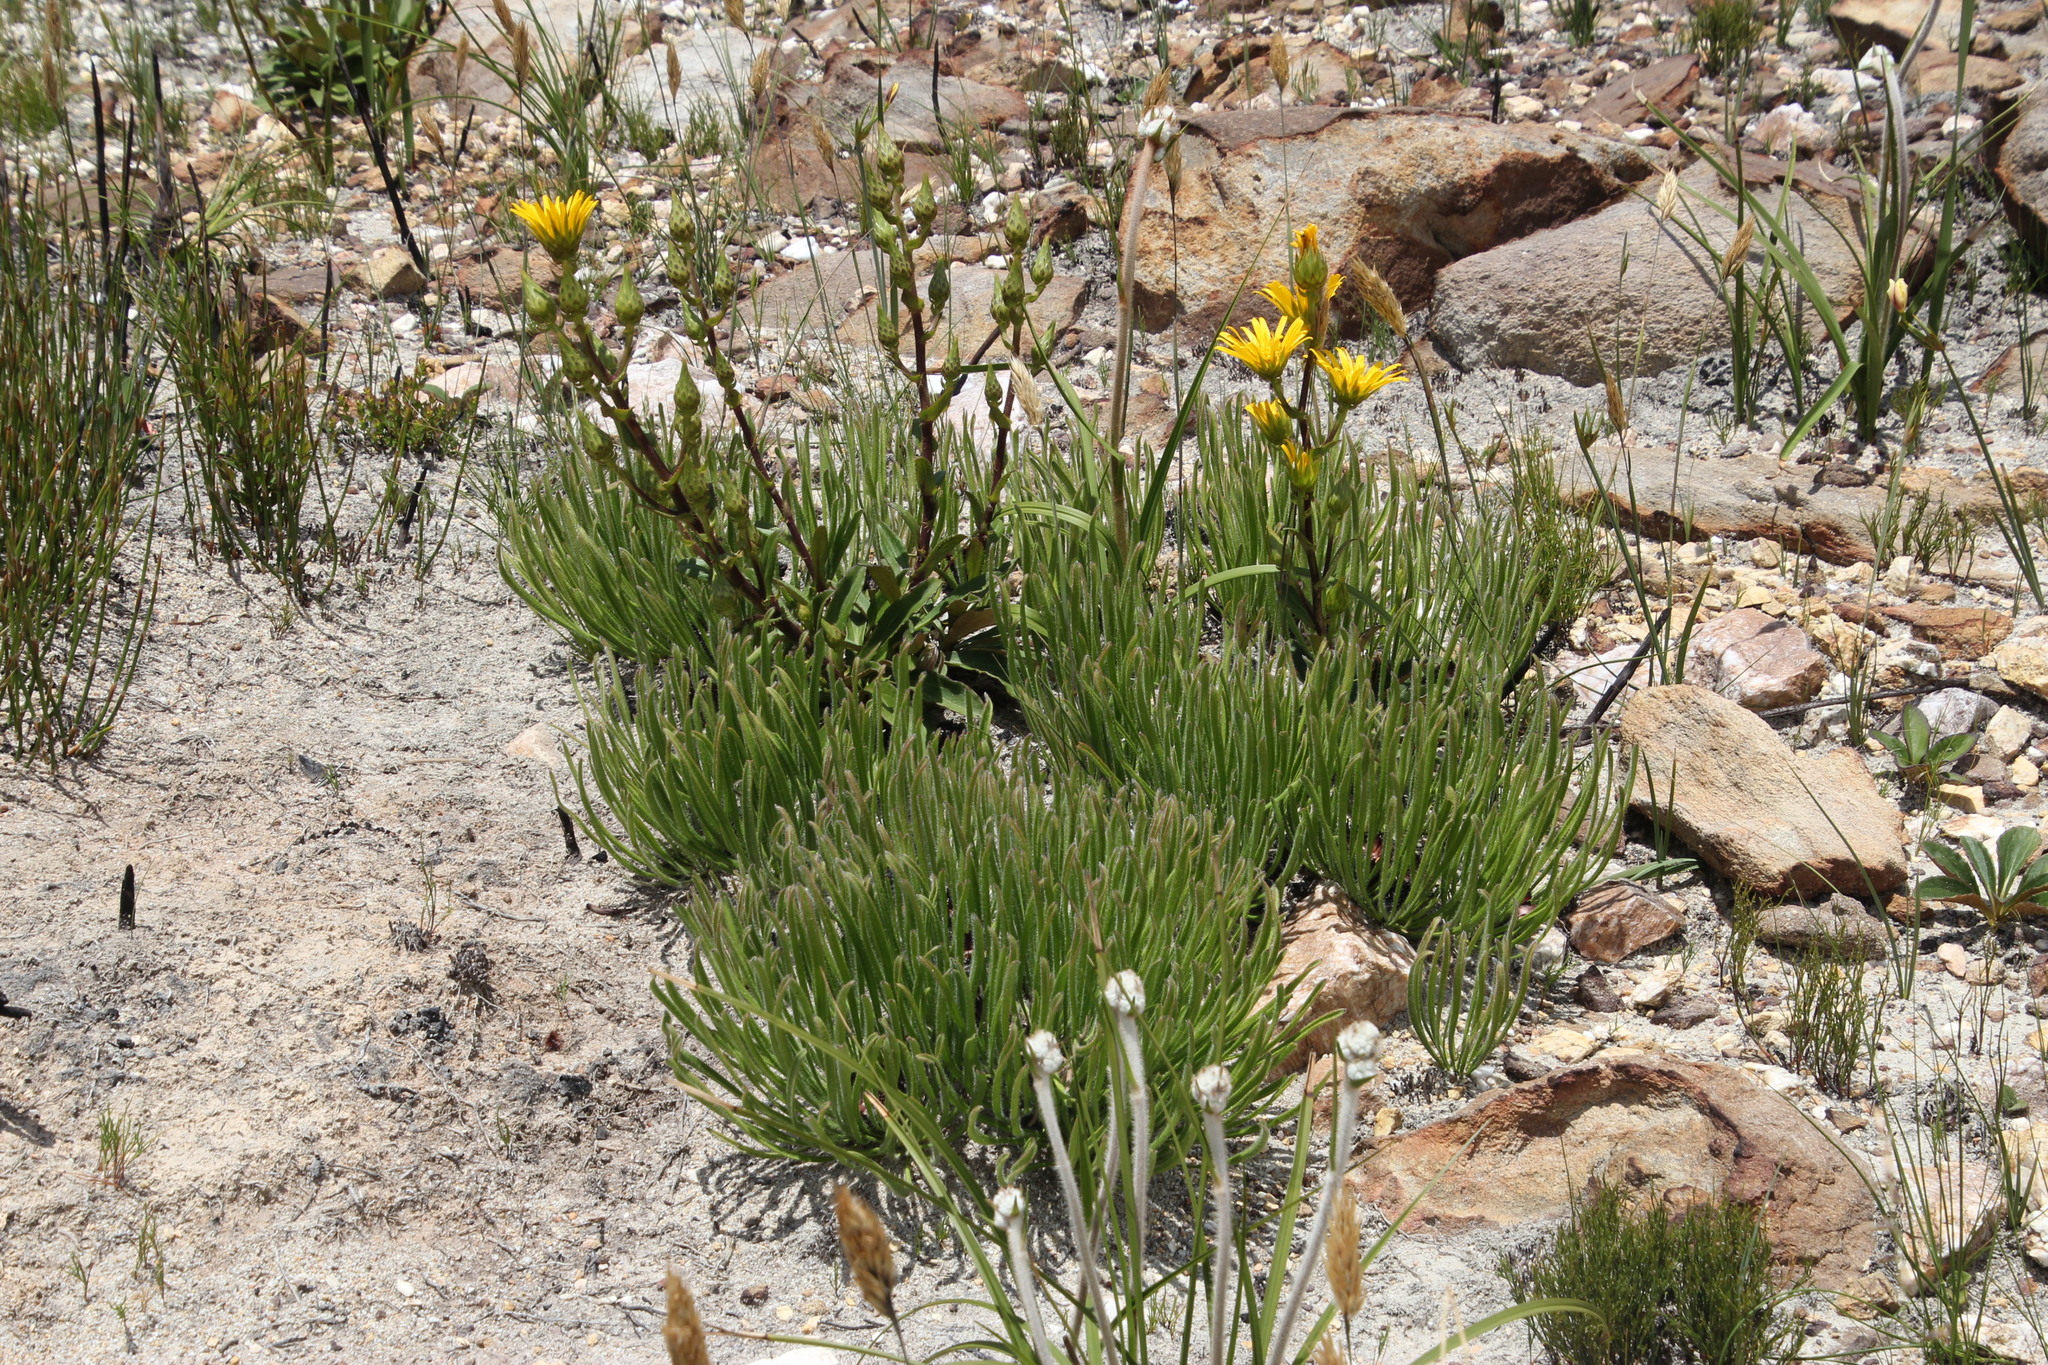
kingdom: Plantae
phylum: Tracheophyta
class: Magnoliopsida
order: Proteales
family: Proteaceae
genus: Protea
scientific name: Protea scabra
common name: Sandpaper-leaf sugarbush
